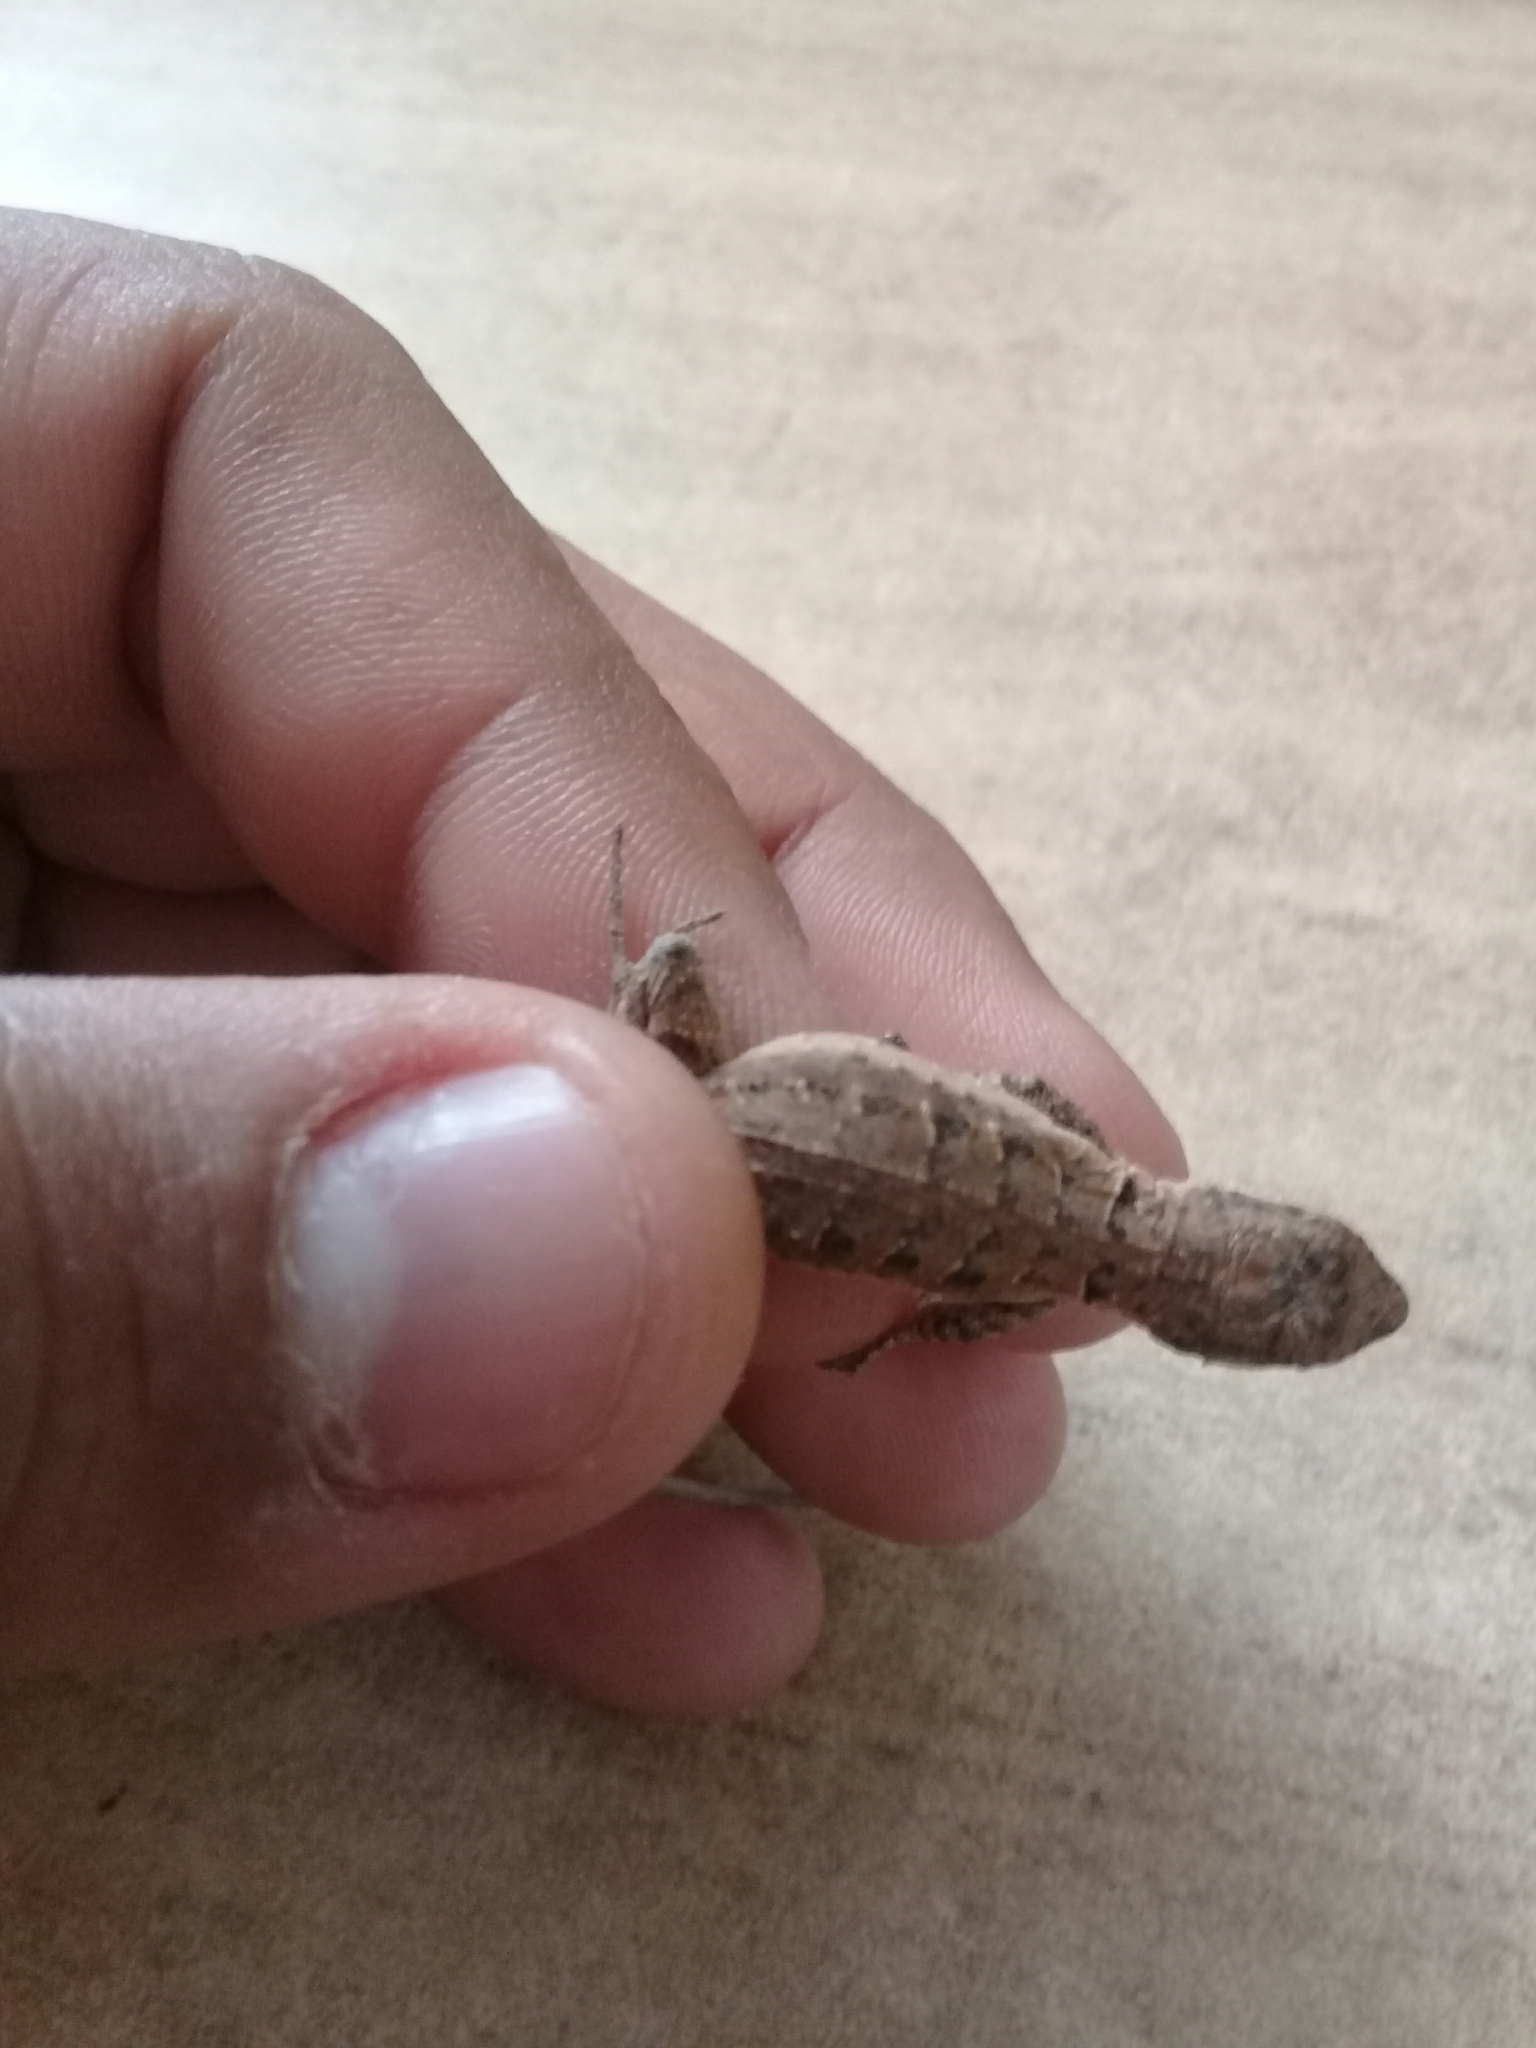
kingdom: Animalia
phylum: Chordata
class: Squamata
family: Phrynosomatidae
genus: Urosaurus
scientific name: Urosaurus ornatus
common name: Ornate tree lizard
